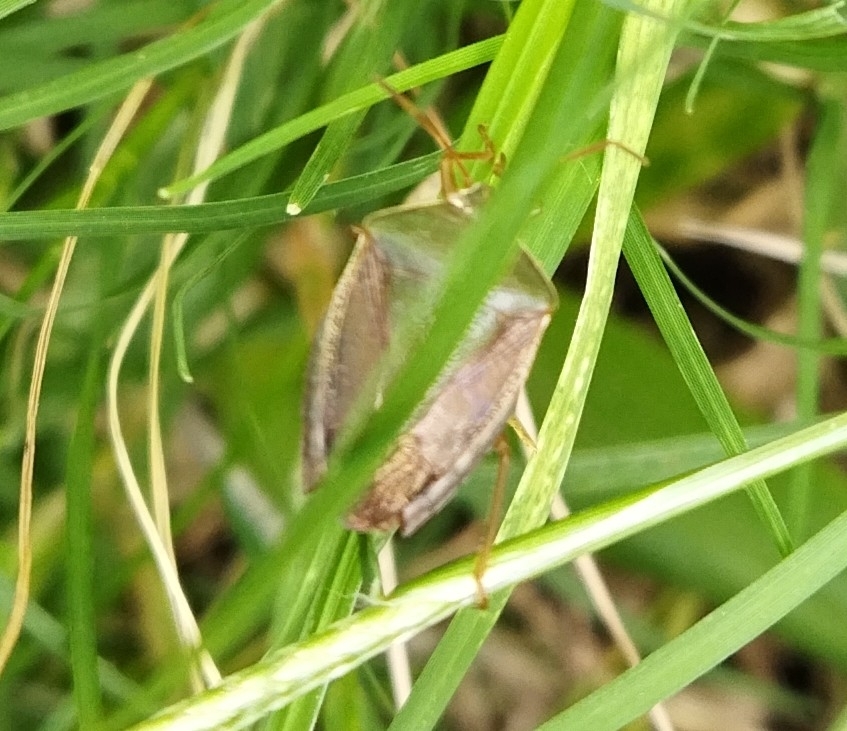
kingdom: Animalia
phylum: Arthropoda
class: Insecta
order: Hemiptera
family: Pentatomidae
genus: Edessa
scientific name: Edessa meditabunda
